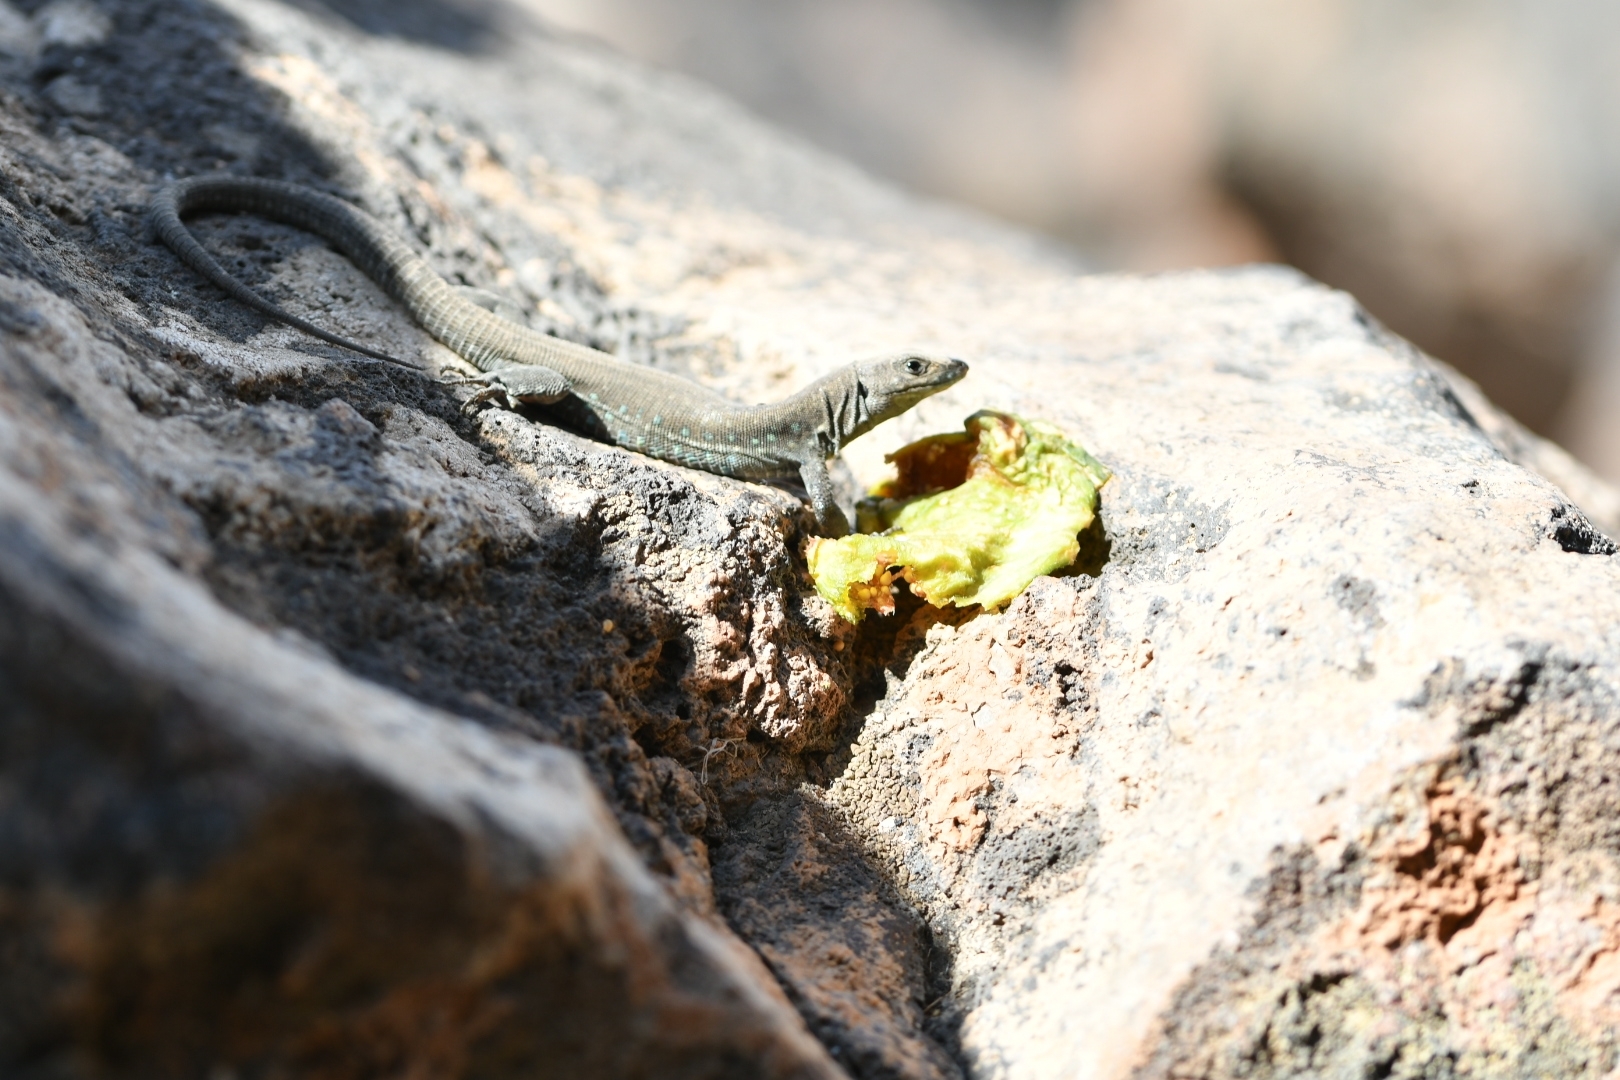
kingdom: Animalia
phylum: Chordata
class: Squamata
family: Lacertidae
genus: Gallotia
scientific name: Gallotia atlantica
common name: Atlantic lizard
